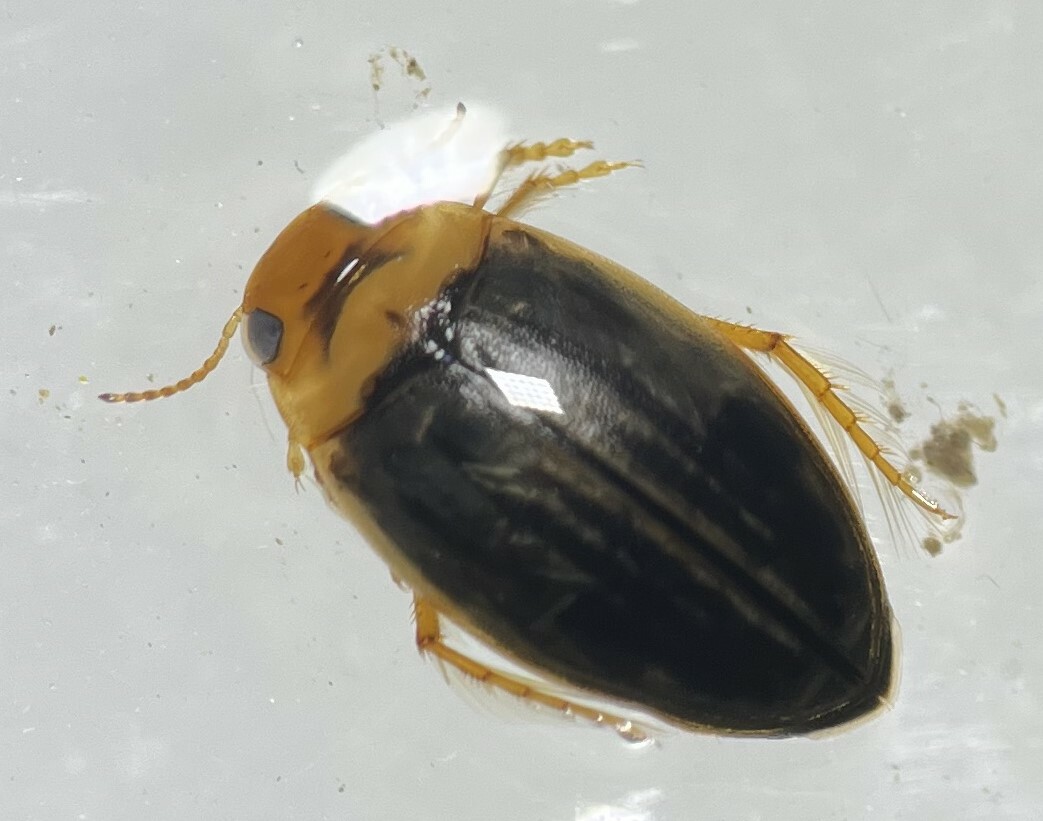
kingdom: Animalia
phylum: Arthropoda
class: Insecta
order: Coleoptera
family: Dytiscidae
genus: Hygrotus
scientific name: Hygrotus nubilus
